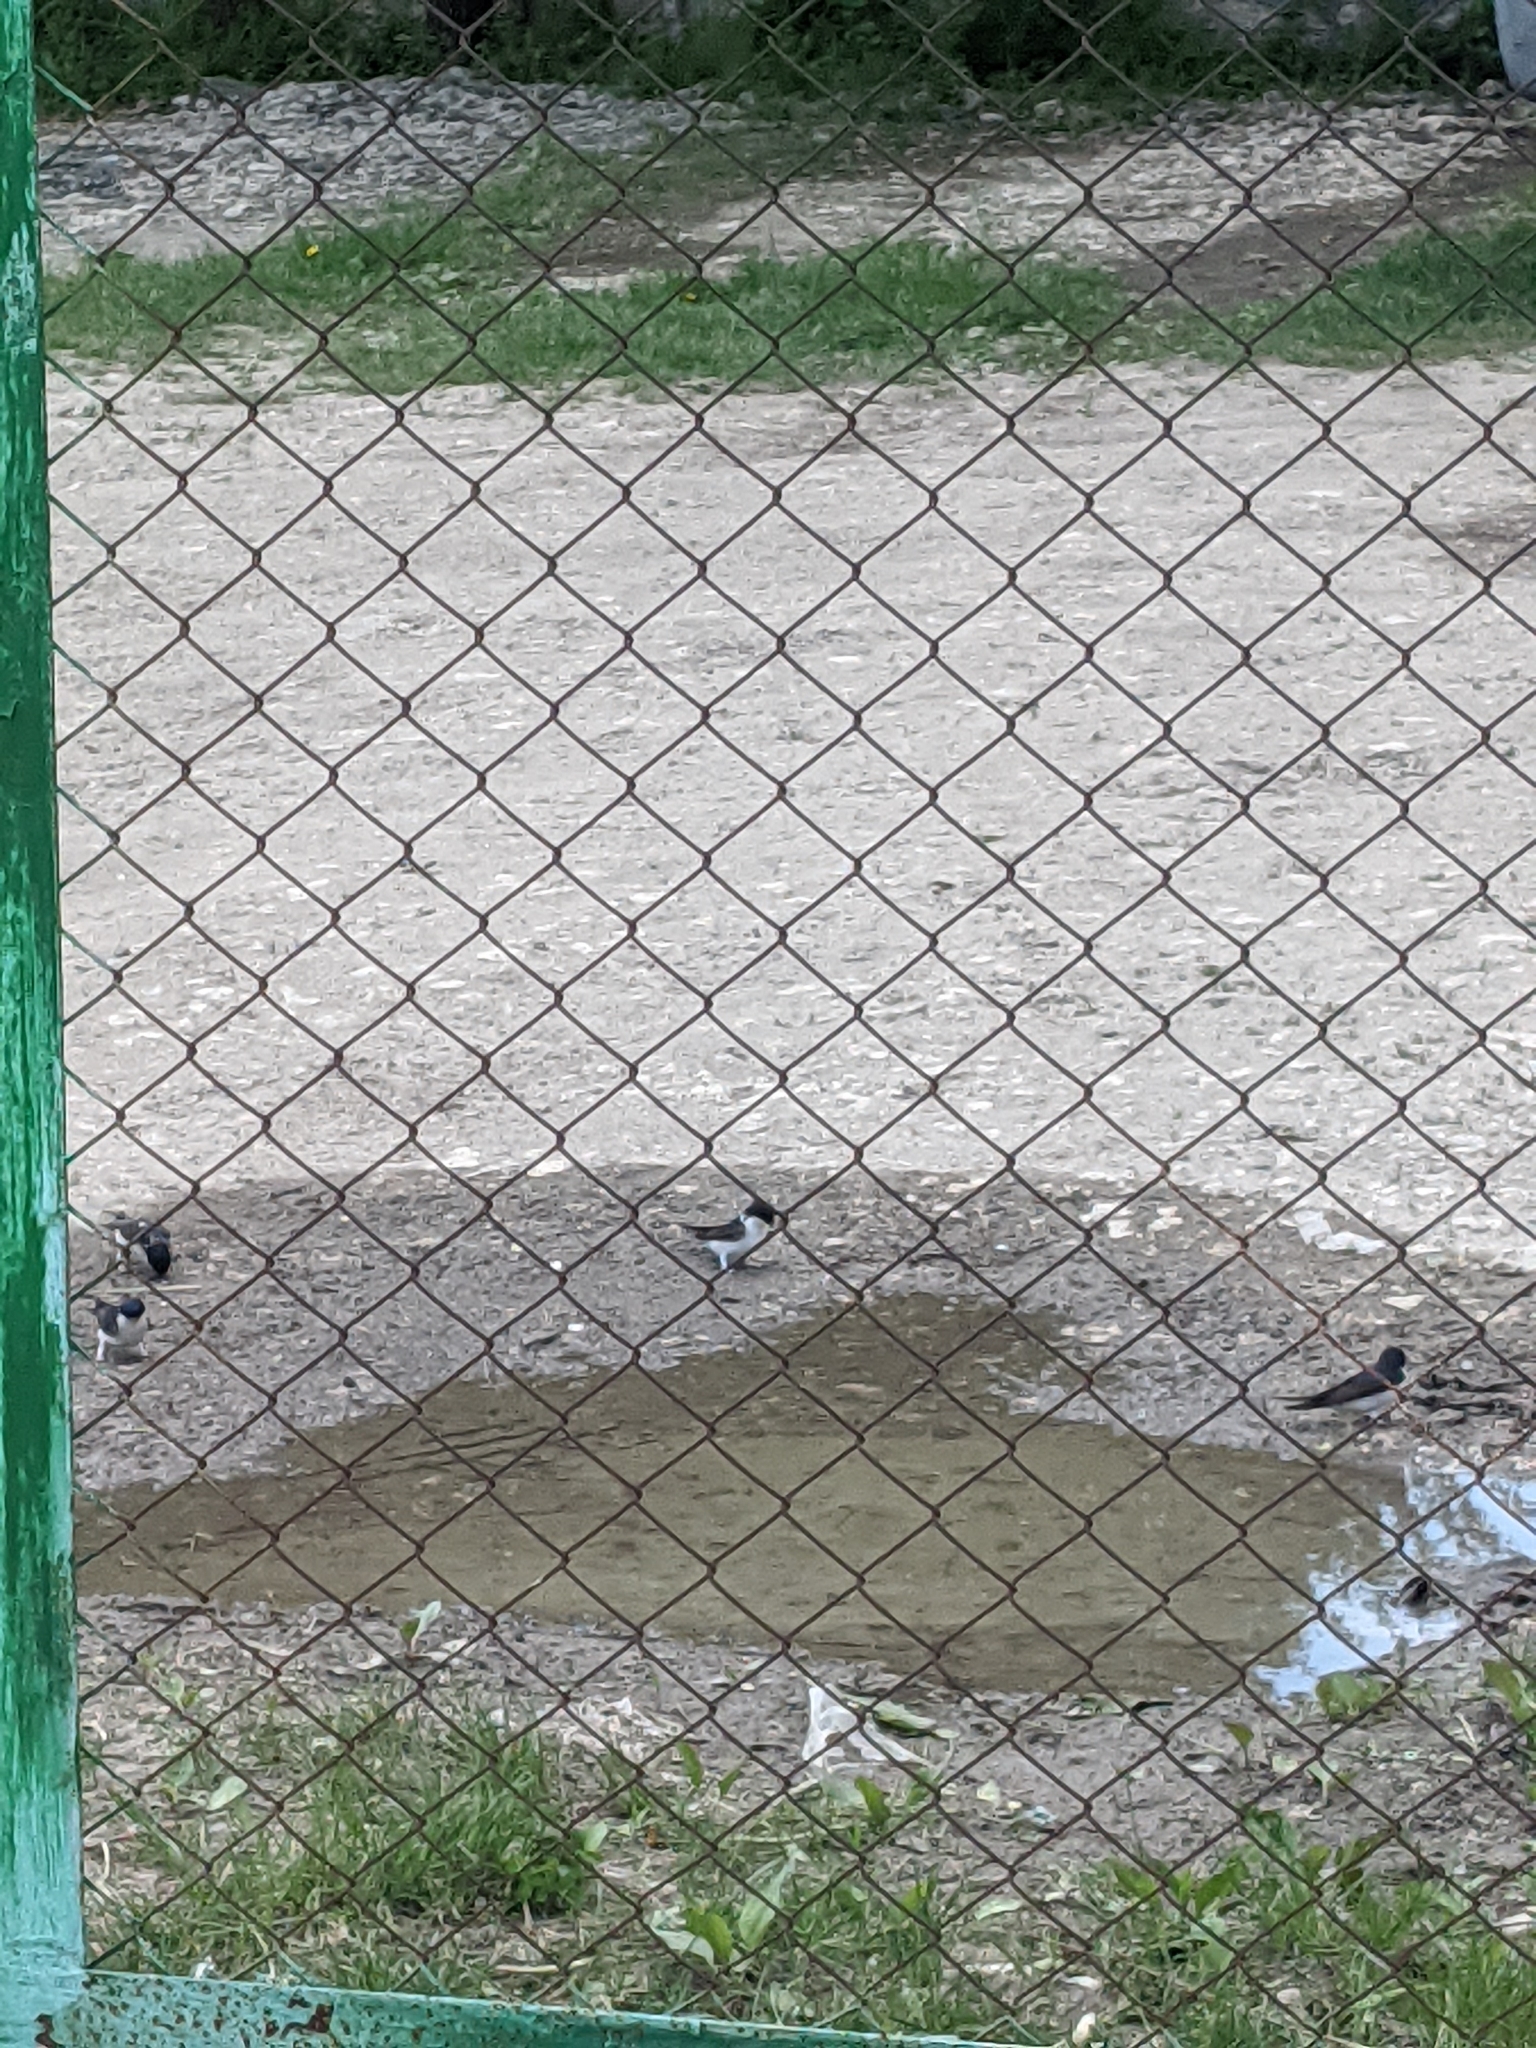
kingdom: Animalia
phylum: Chordata
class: Aves
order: Passeriformes
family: Hirundinidae
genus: Delichon
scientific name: Delichon urbicum
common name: Common house martin
